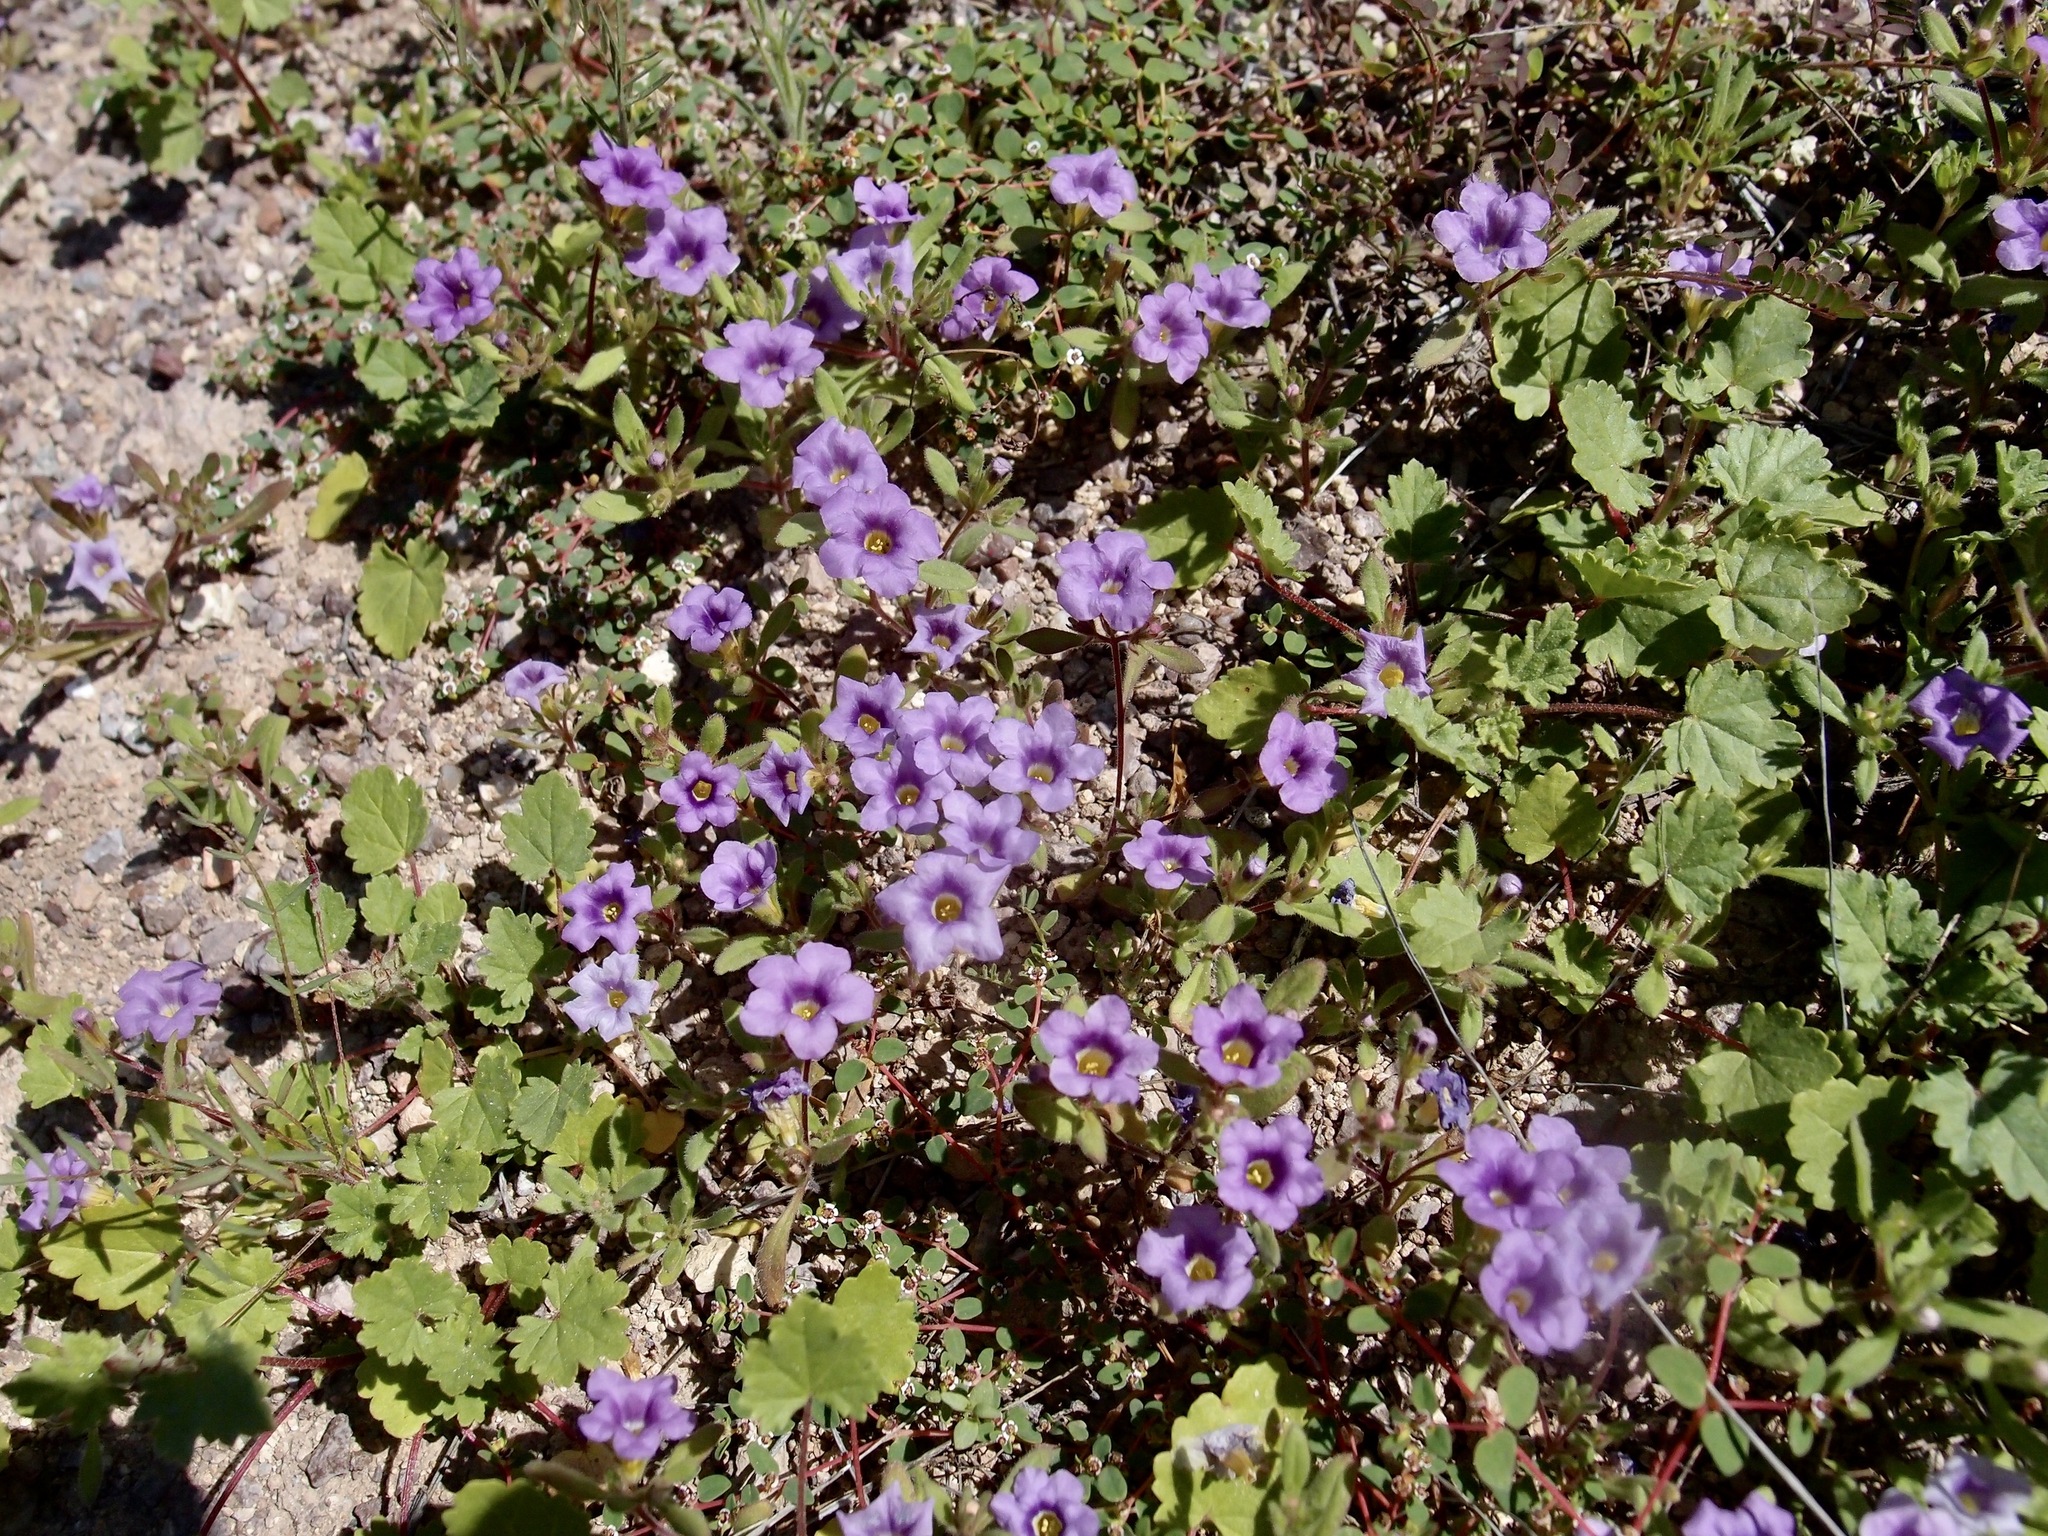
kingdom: Plantae
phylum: Tracheophyta
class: Magnoliopsida
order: Boraginales
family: Namaceae
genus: Nama
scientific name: Nama hispida
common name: Bristly nama
